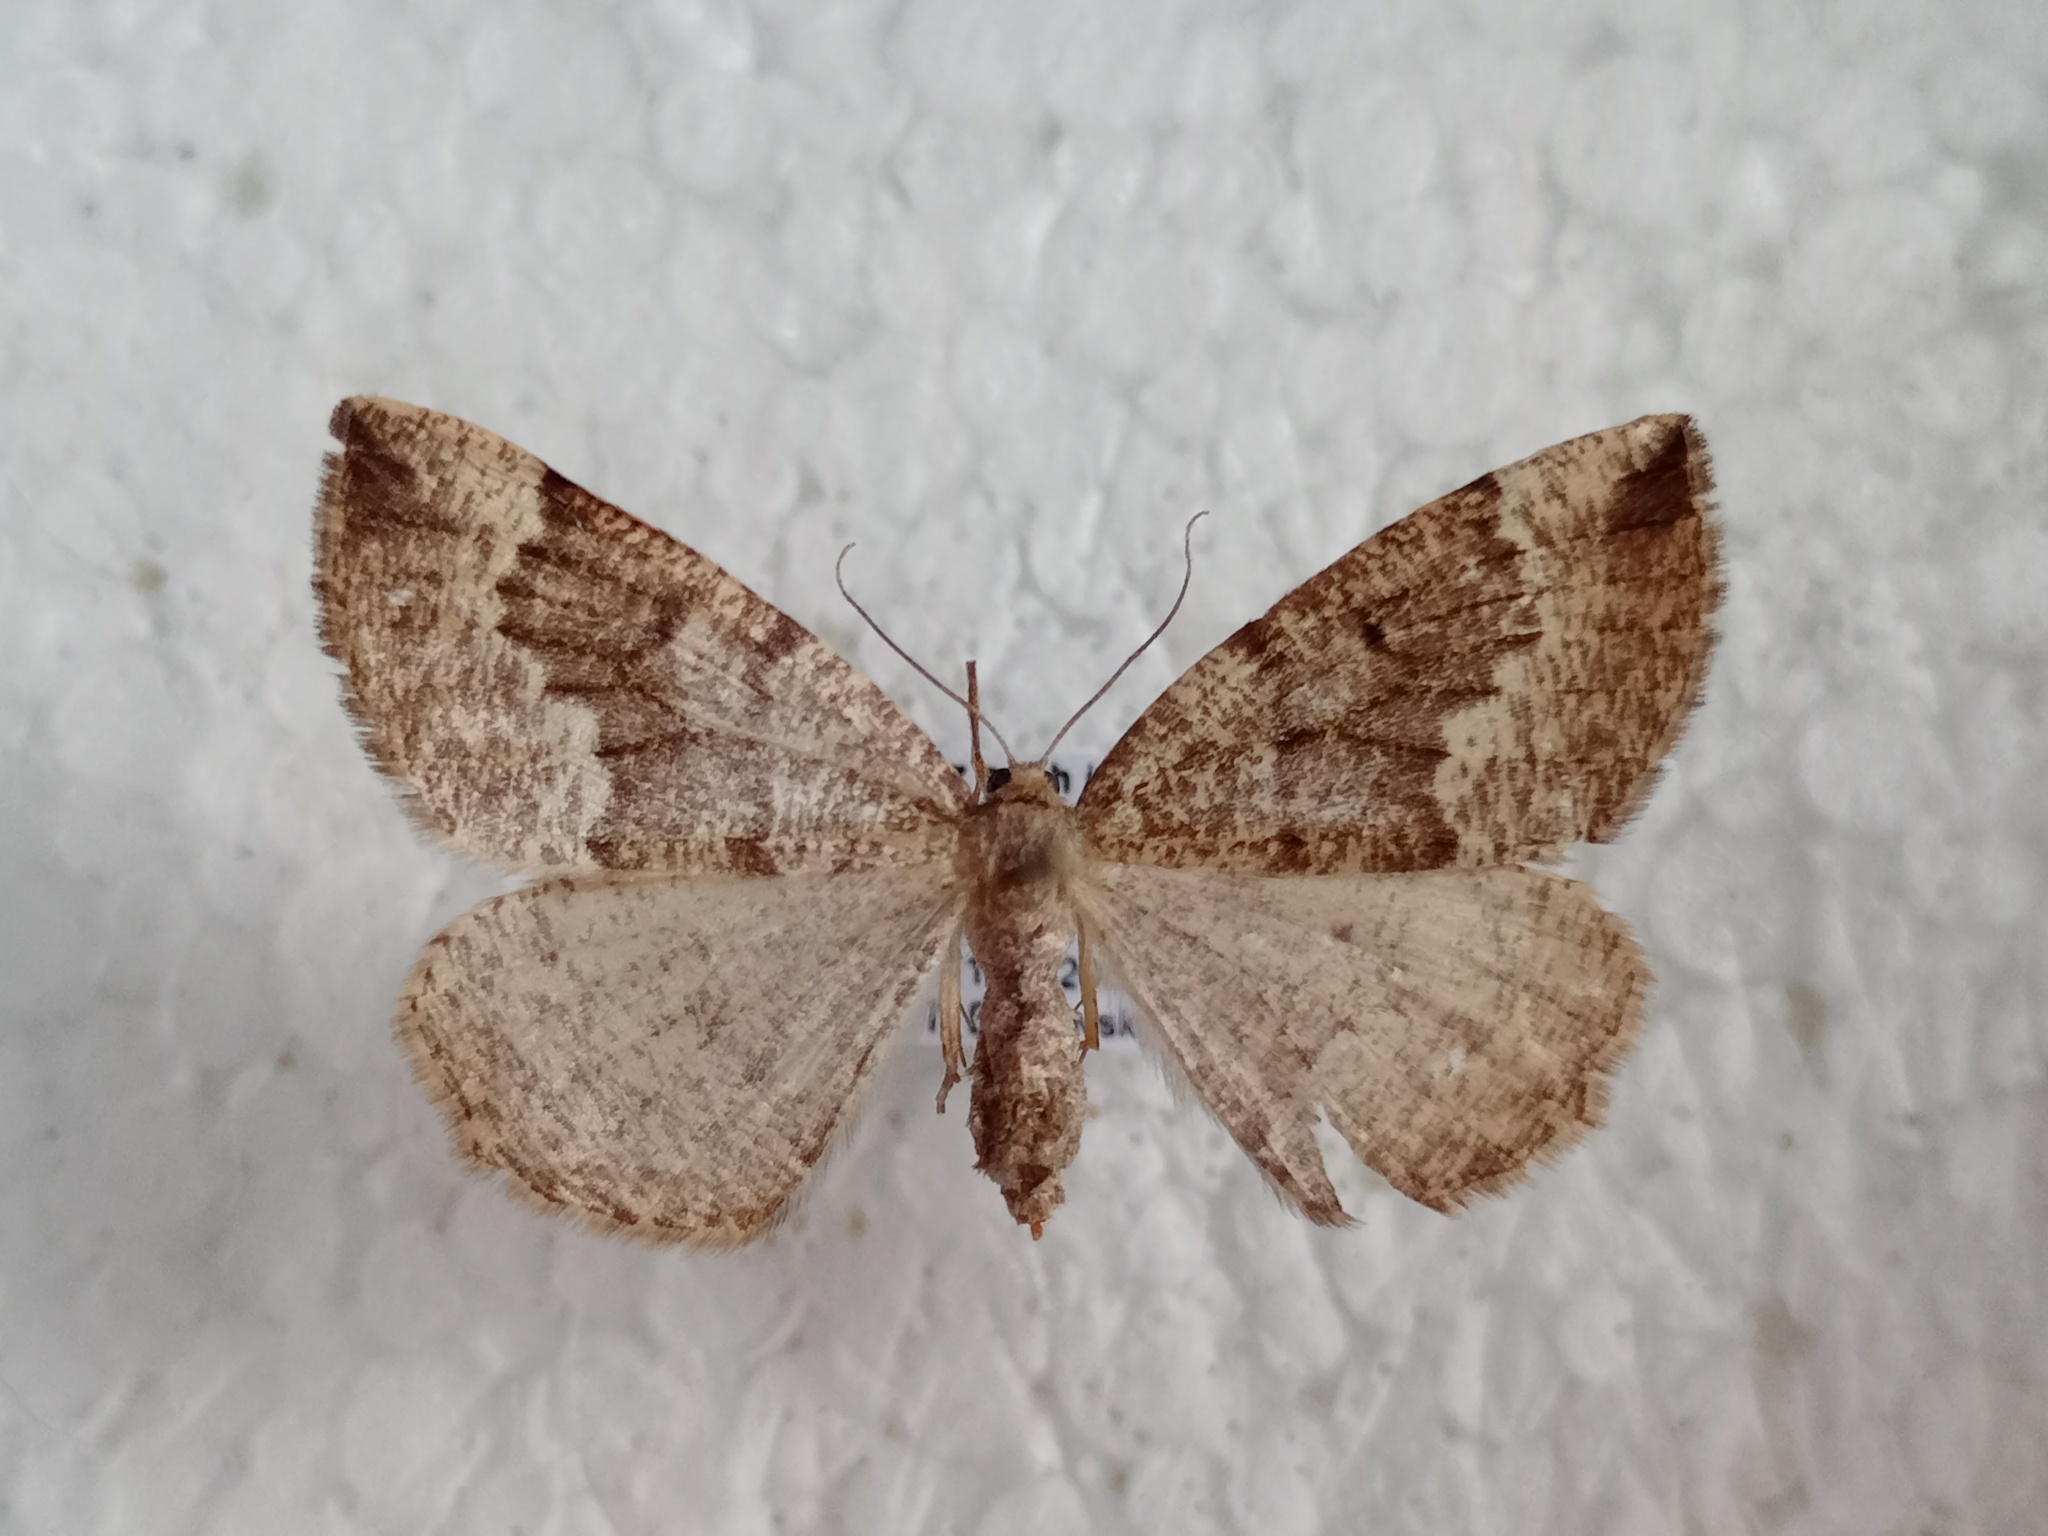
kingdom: Animalia
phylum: Arthropoda
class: Insecta
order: Lepidoptera
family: Geometridae
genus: Pungeleria
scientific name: Pungeleria capreolaria
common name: Banded pine carpet
